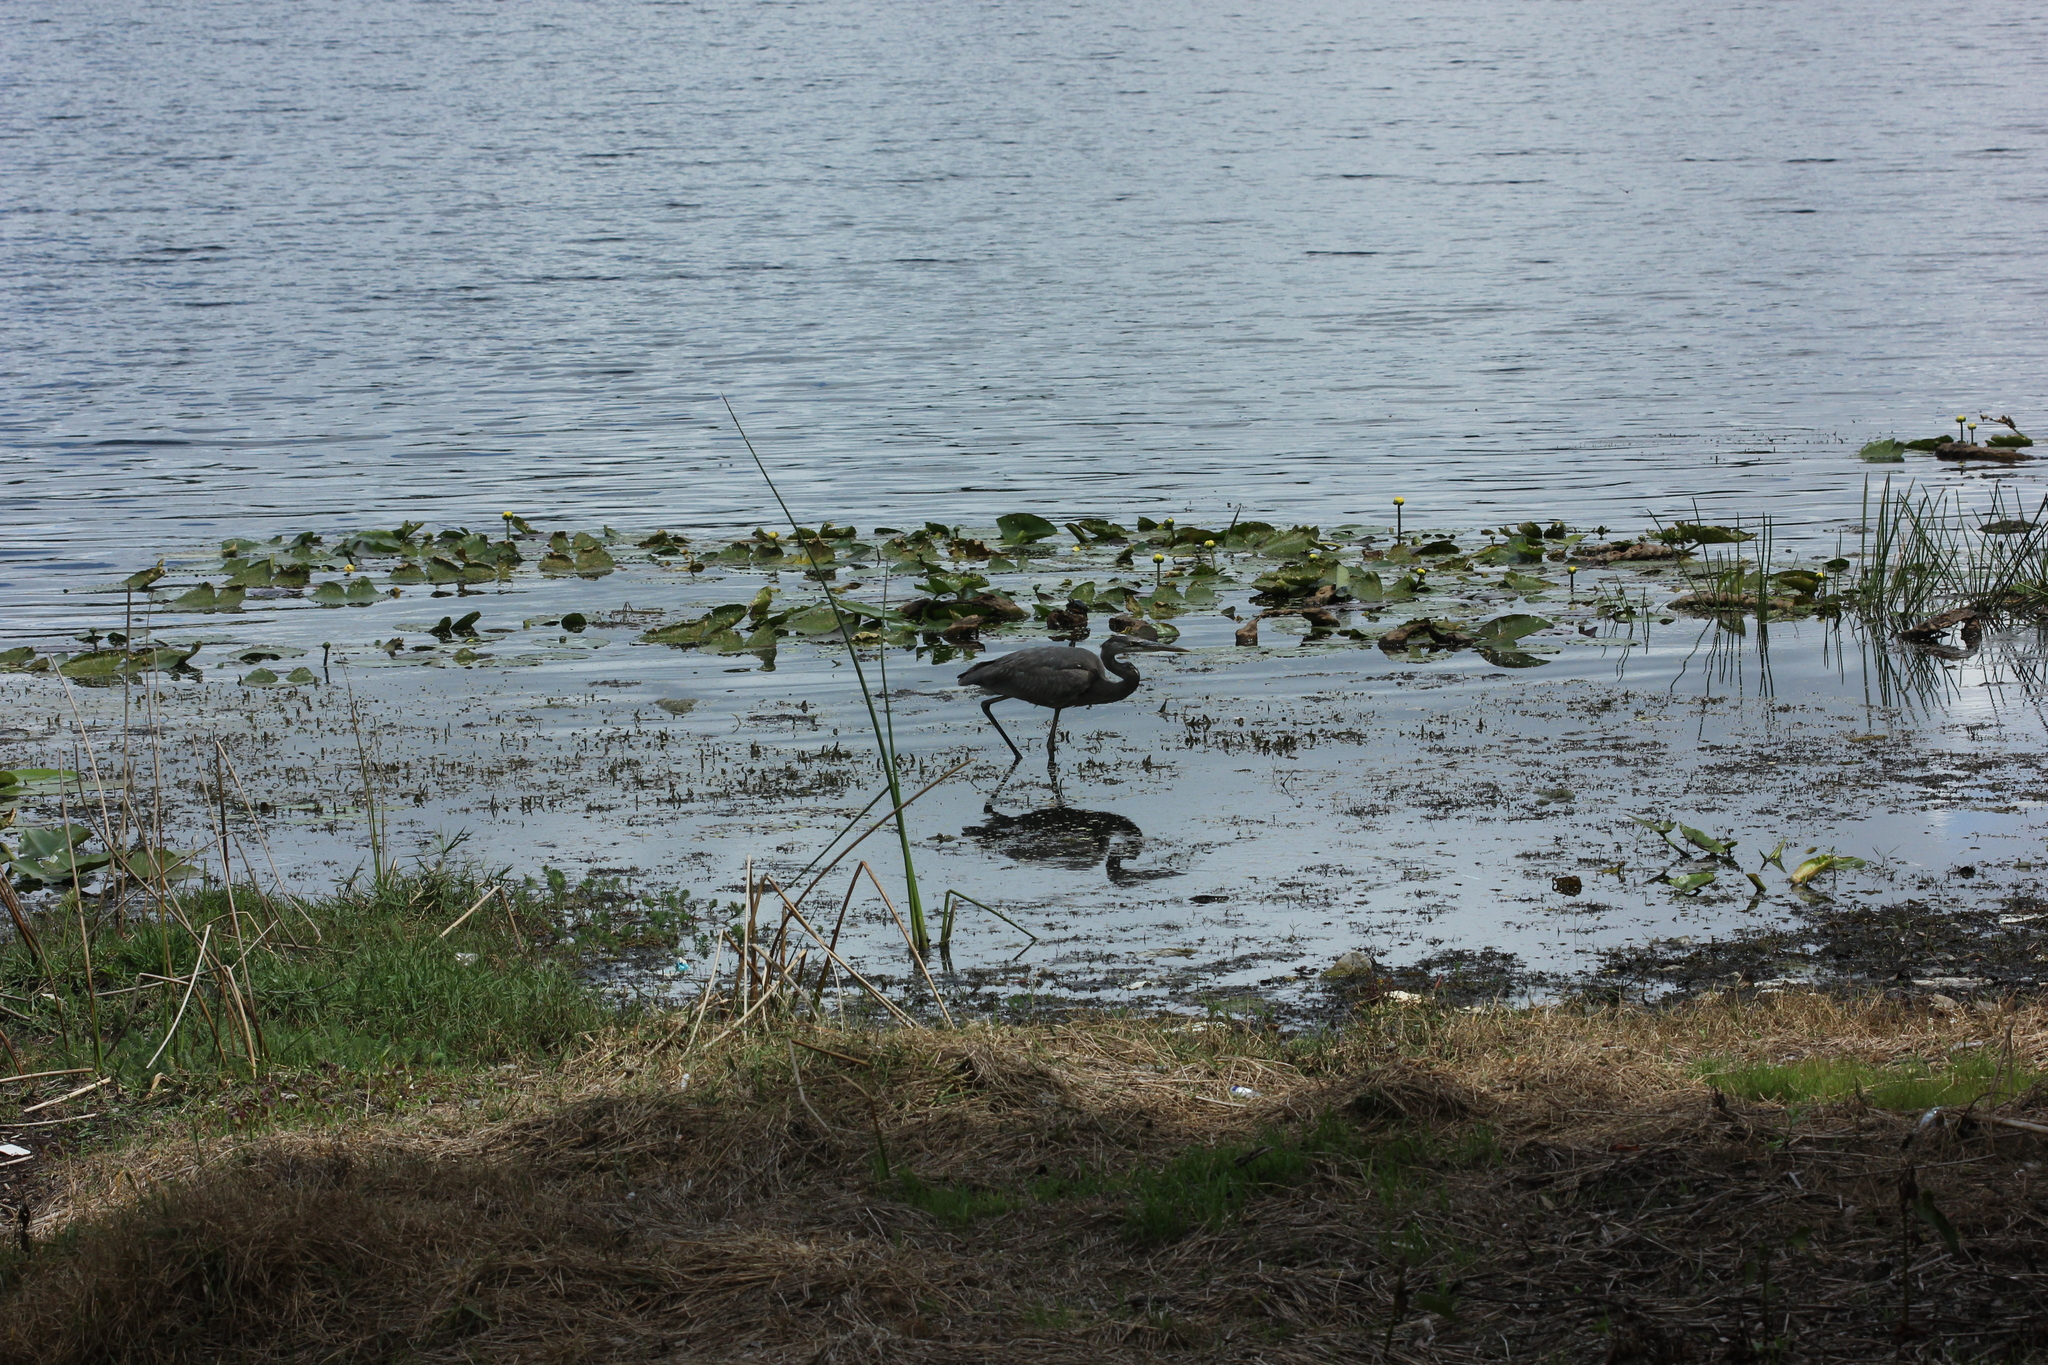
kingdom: Animalia
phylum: Chordata
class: Aves
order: Pelecaniformes
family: Ardeidae
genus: Ardea
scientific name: Ardea herodias
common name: Great blue heron
